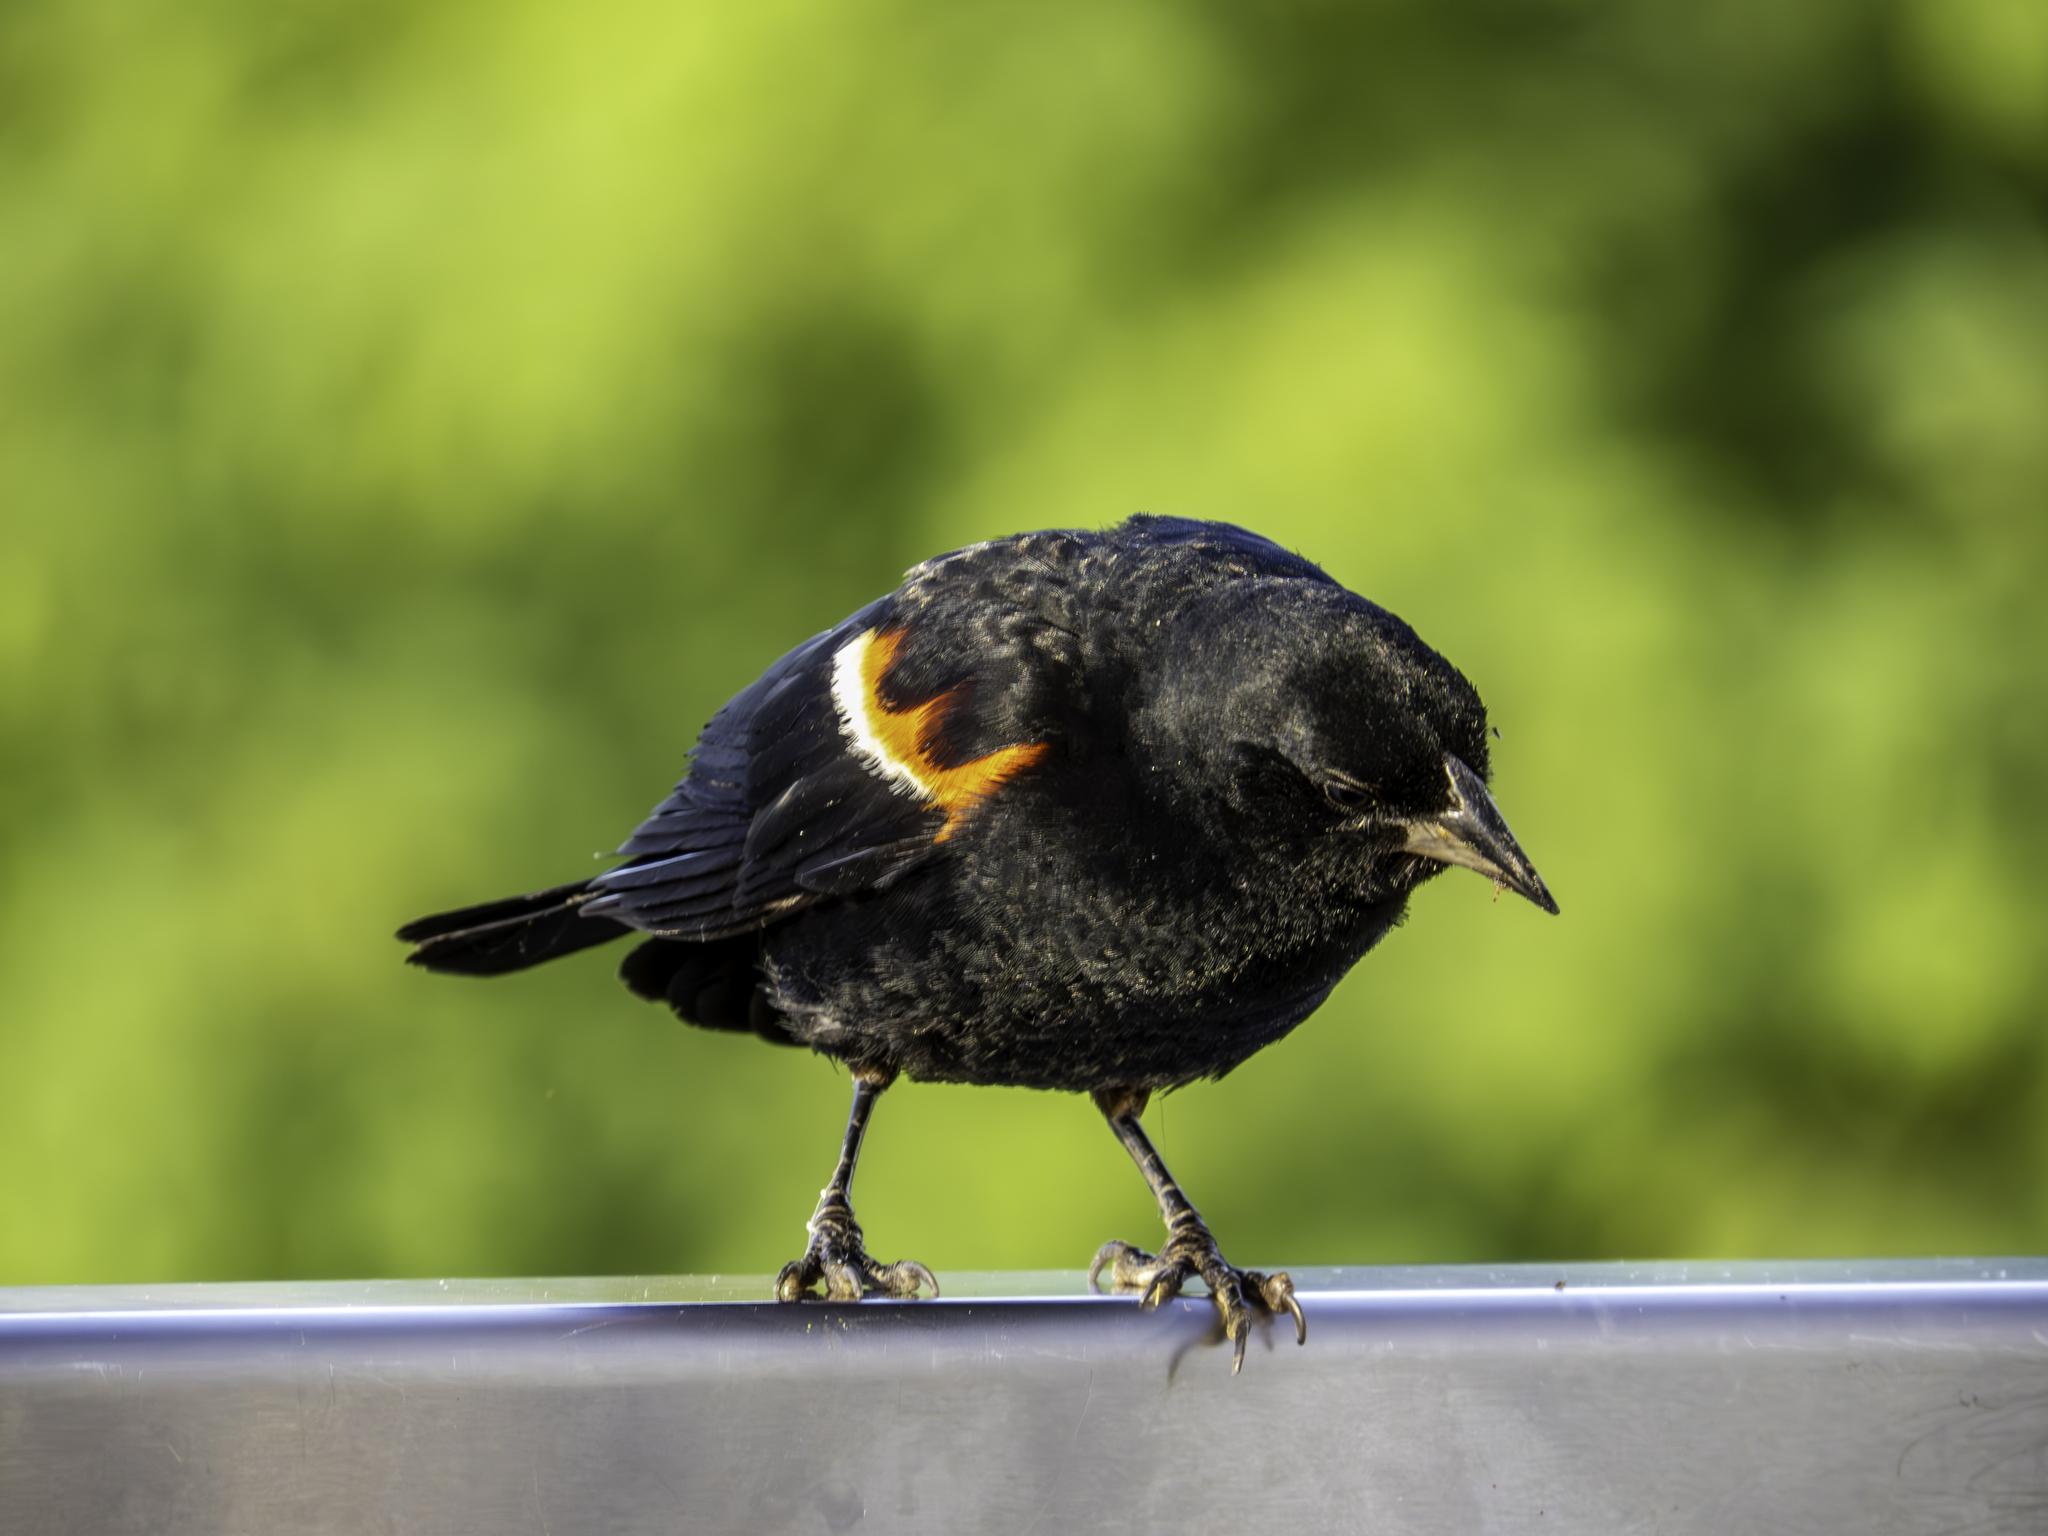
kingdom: Animalia
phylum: Chordata
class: Aves
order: Passeriformes
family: Icteridae
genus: Agelaius
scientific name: Agelaius phoeniceus
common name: Red-winged blackbird
